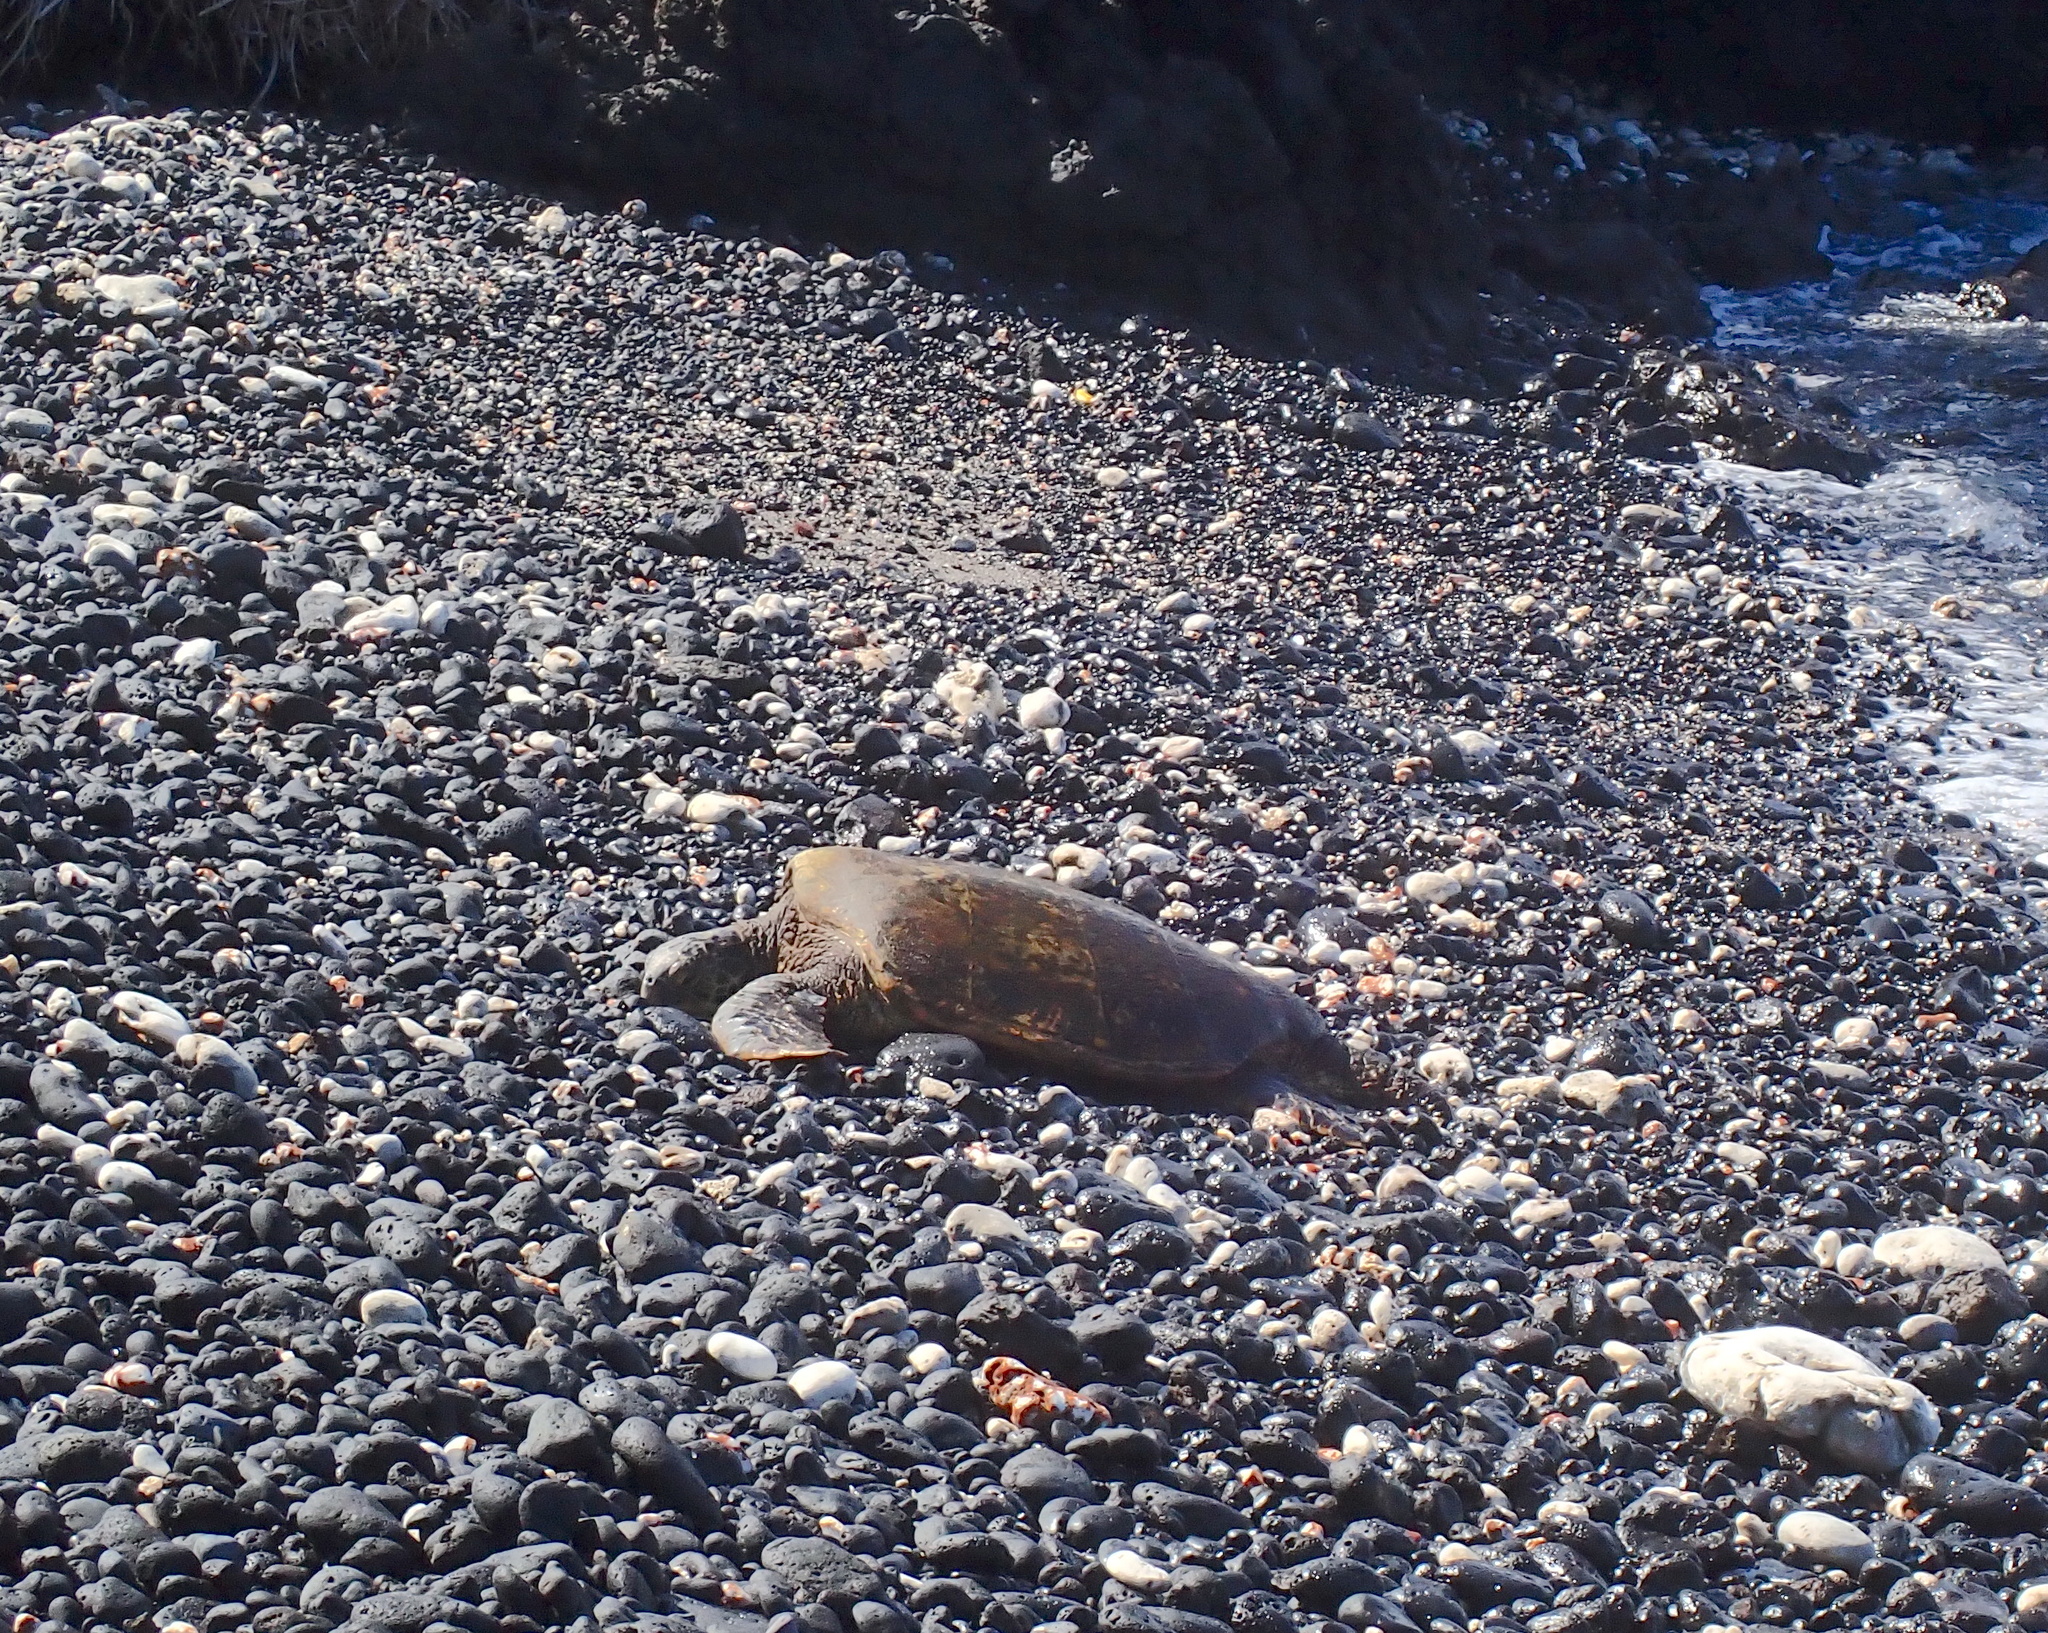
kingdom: Animalia
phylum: Chordata
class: Testudines
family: Cheloniidae
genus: Chelonia
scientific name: Chelonia mydas
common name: Green turtle
